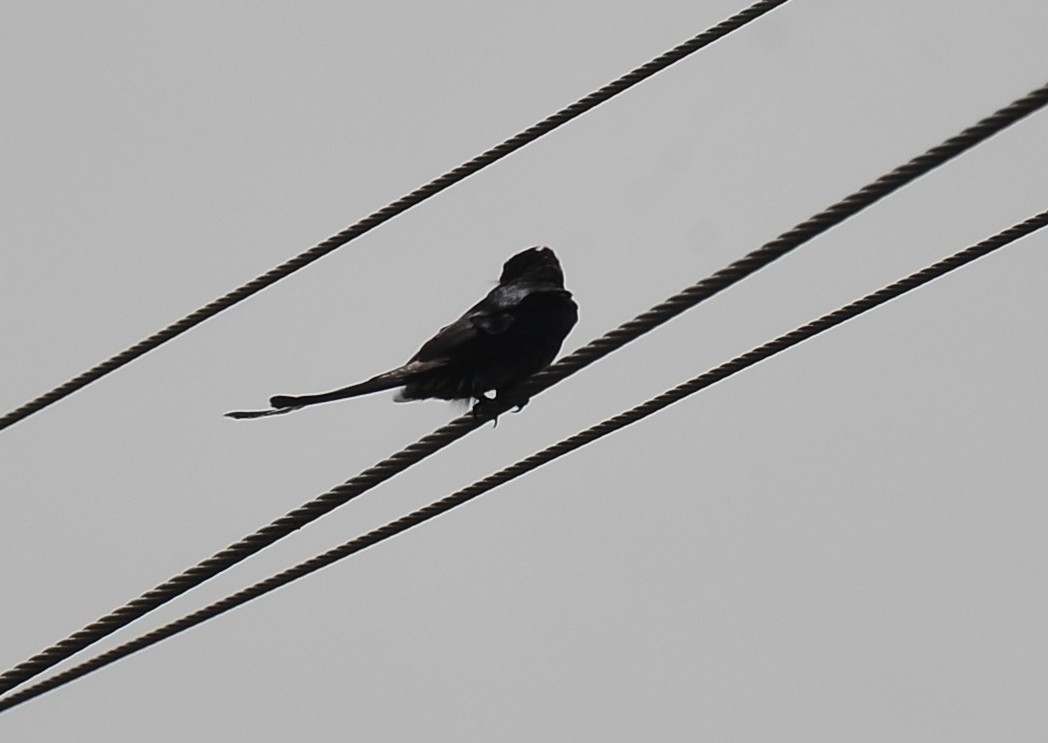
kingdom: Animalia
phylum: Chordata
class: Aves
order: Passeriformes
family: Dicruridae
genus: Dicrurus
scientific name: Dicrurus macrocercus
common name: Black drongo
